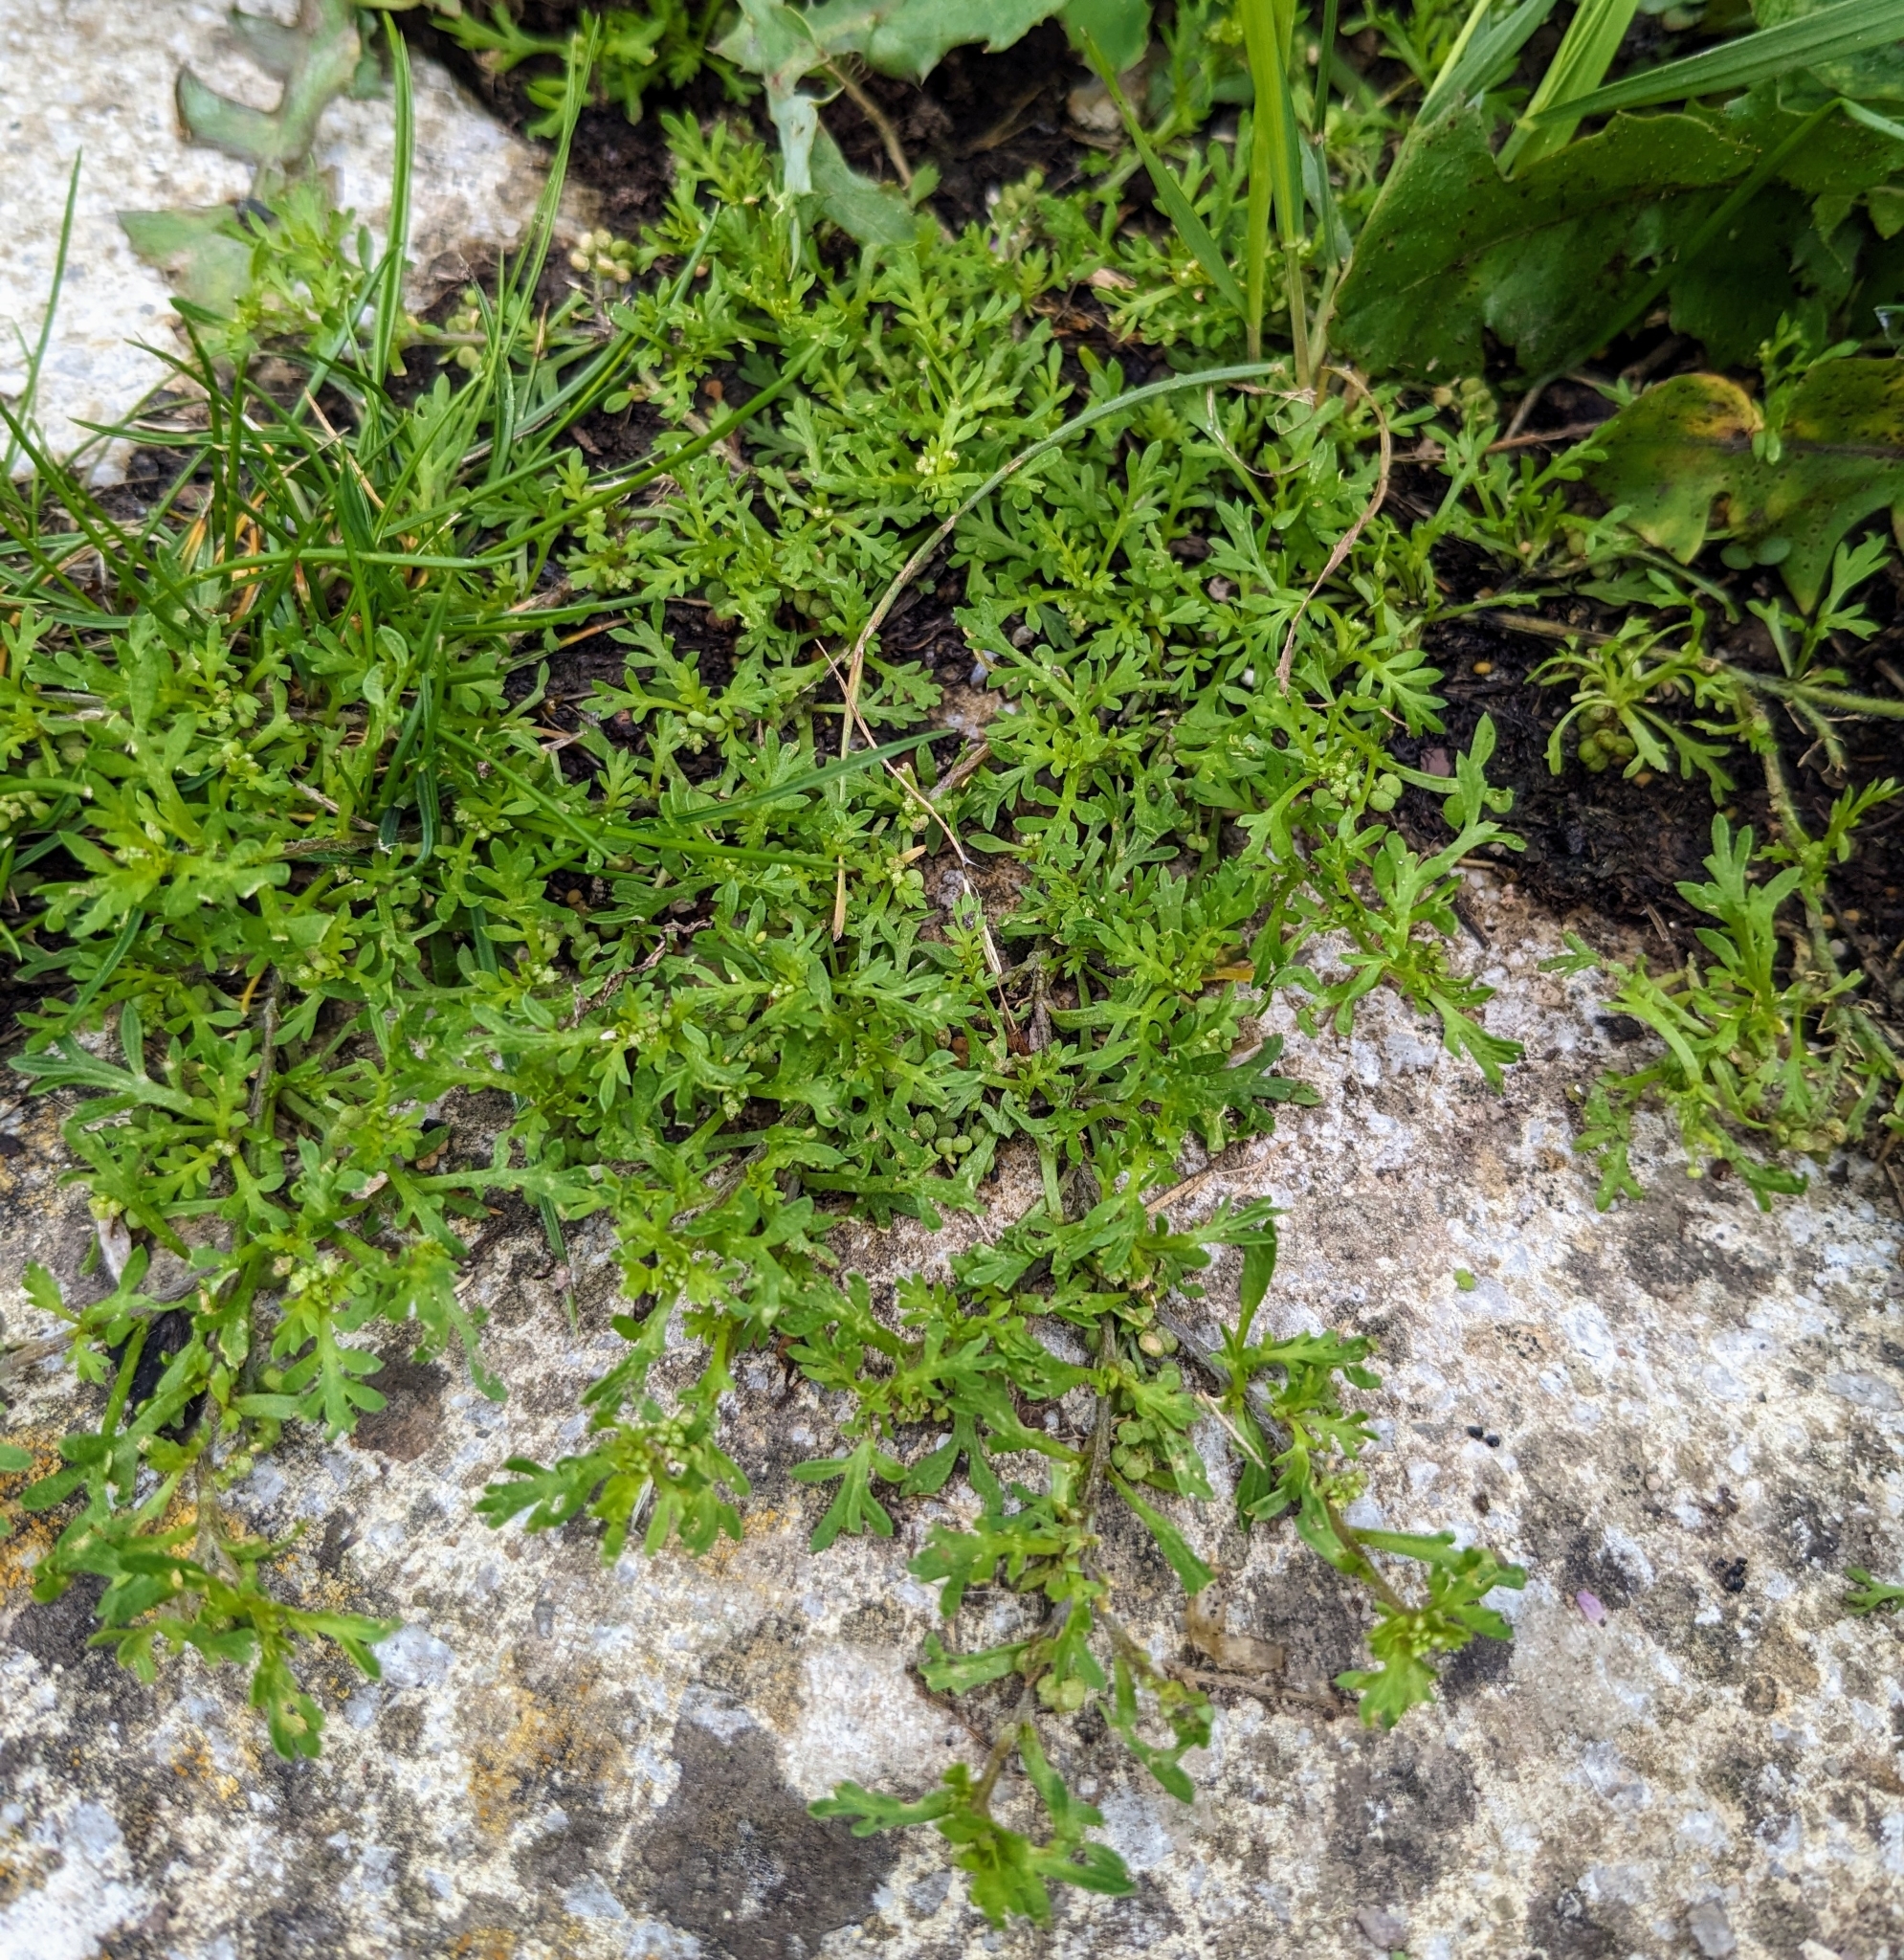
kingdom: Plantae
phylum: Tracheophyta
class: Magnoliopsida
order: Brassicales
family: Brassicaceae
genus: Lepidium
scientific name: Lepidium didymum
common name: Lesser swinecress
